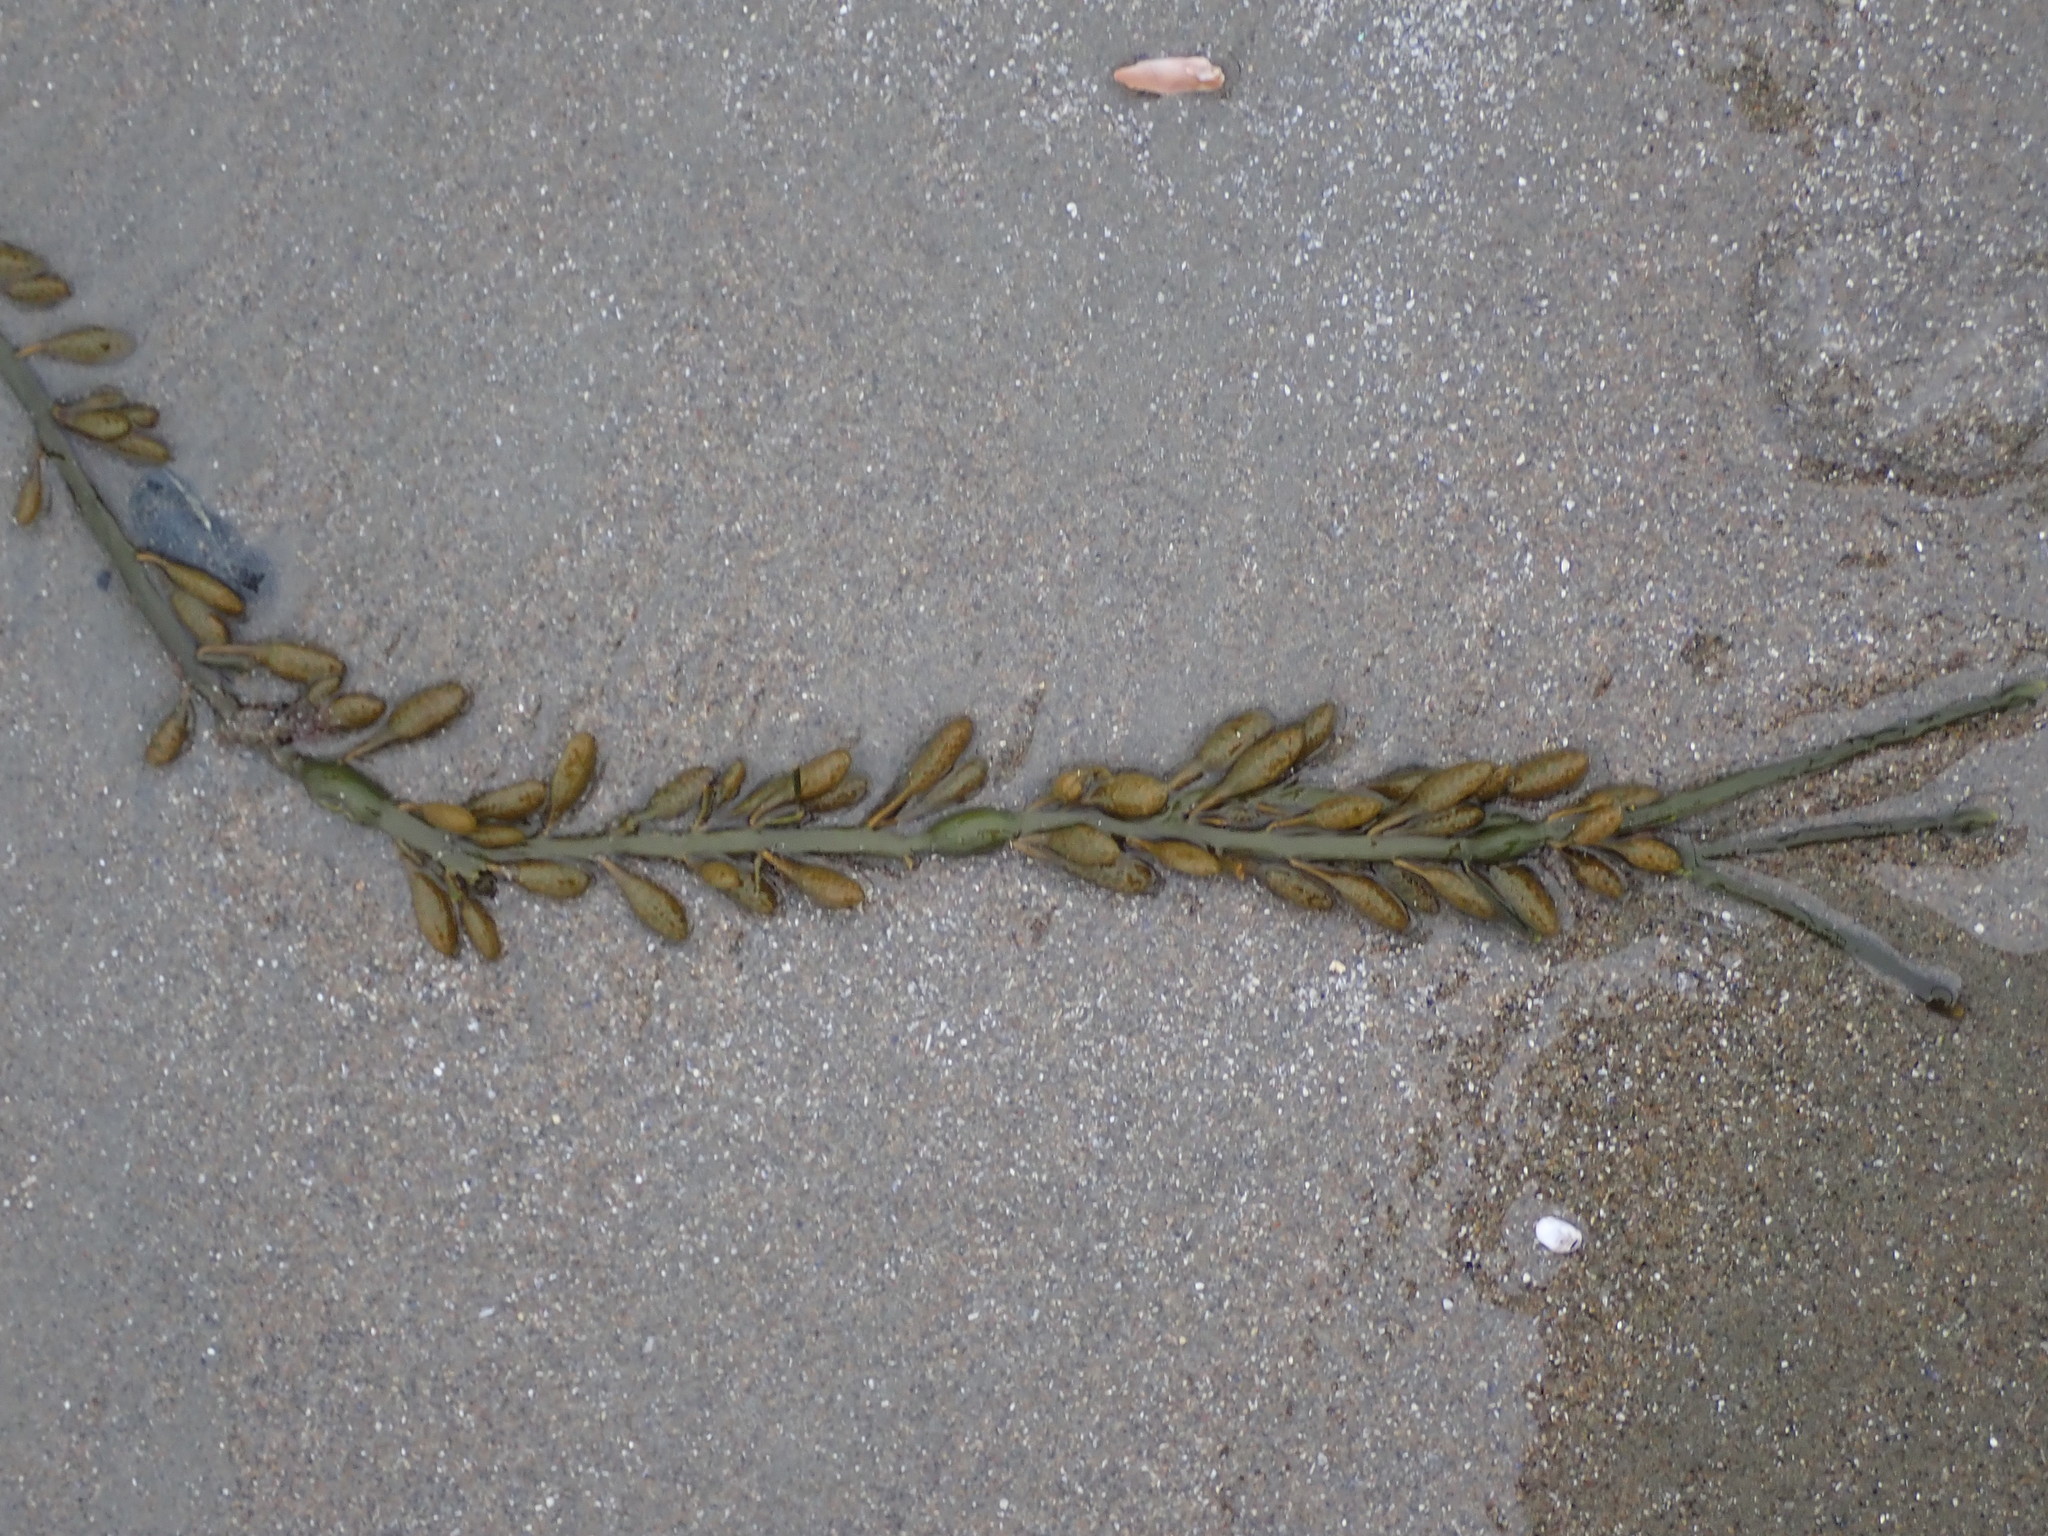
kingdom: Chromista
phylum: Ochrophyta
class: Phaeophyceae
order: Fucales
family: Fucaceae
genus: Ascophyllum
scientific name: Ascophyllum nodosum
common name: Knotted wrack
